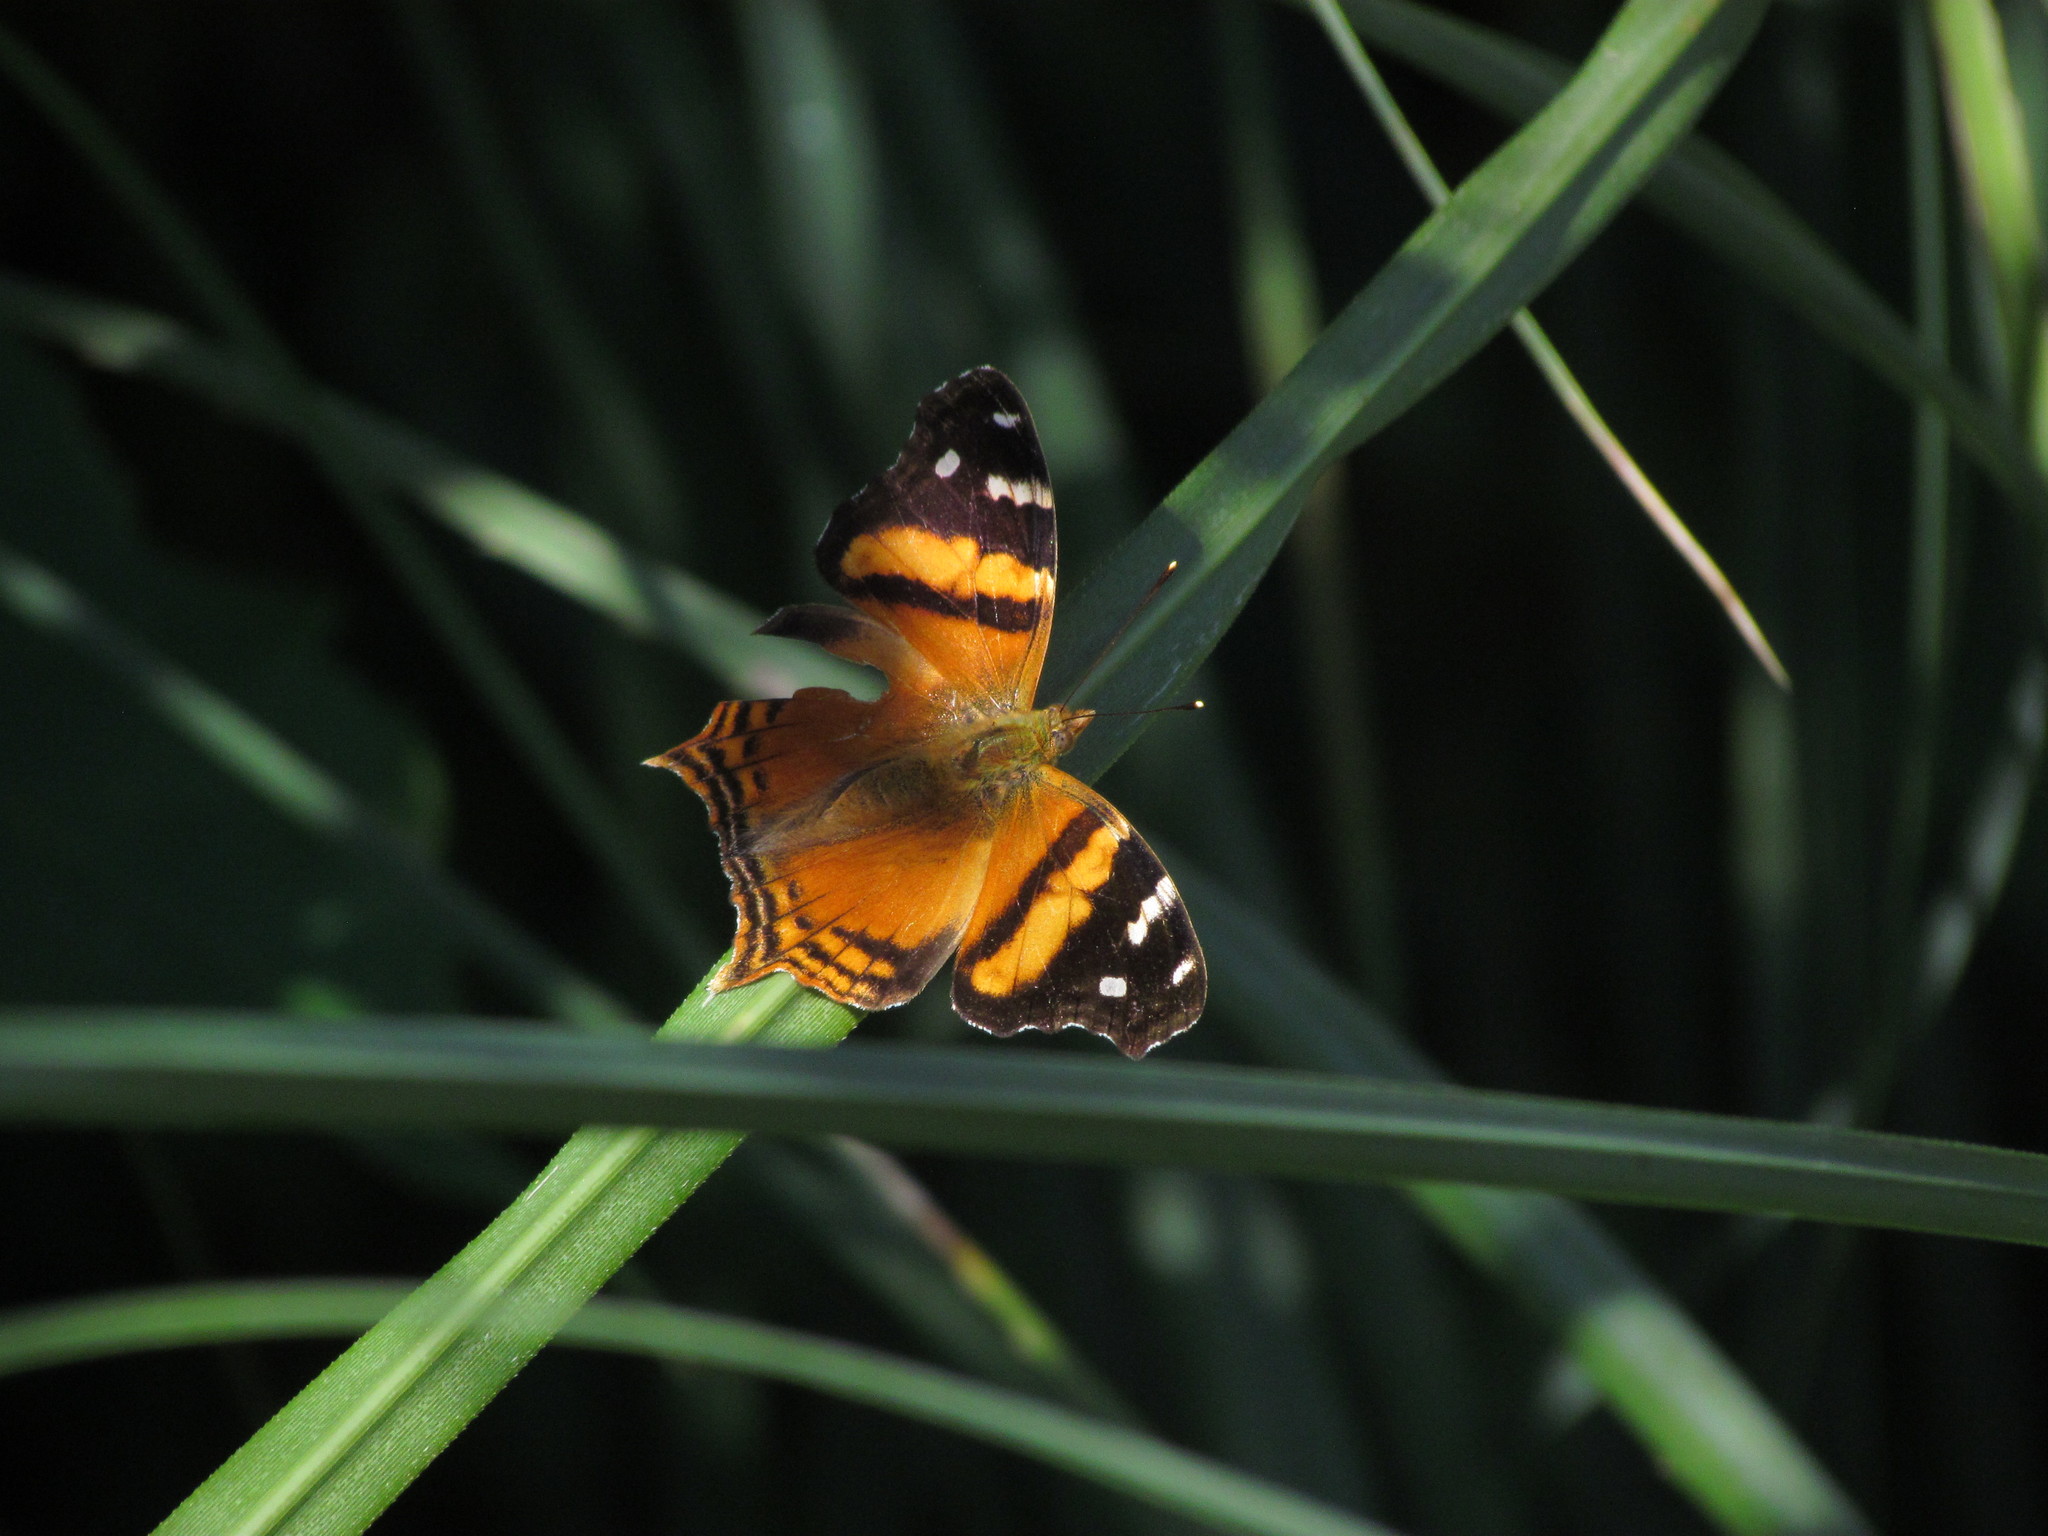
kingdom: Animalia
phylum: Arthropoda
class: Insecta
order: Lepidoptera
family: Nymphalidae
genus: Hypanartia
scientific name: Hypanartia bella
